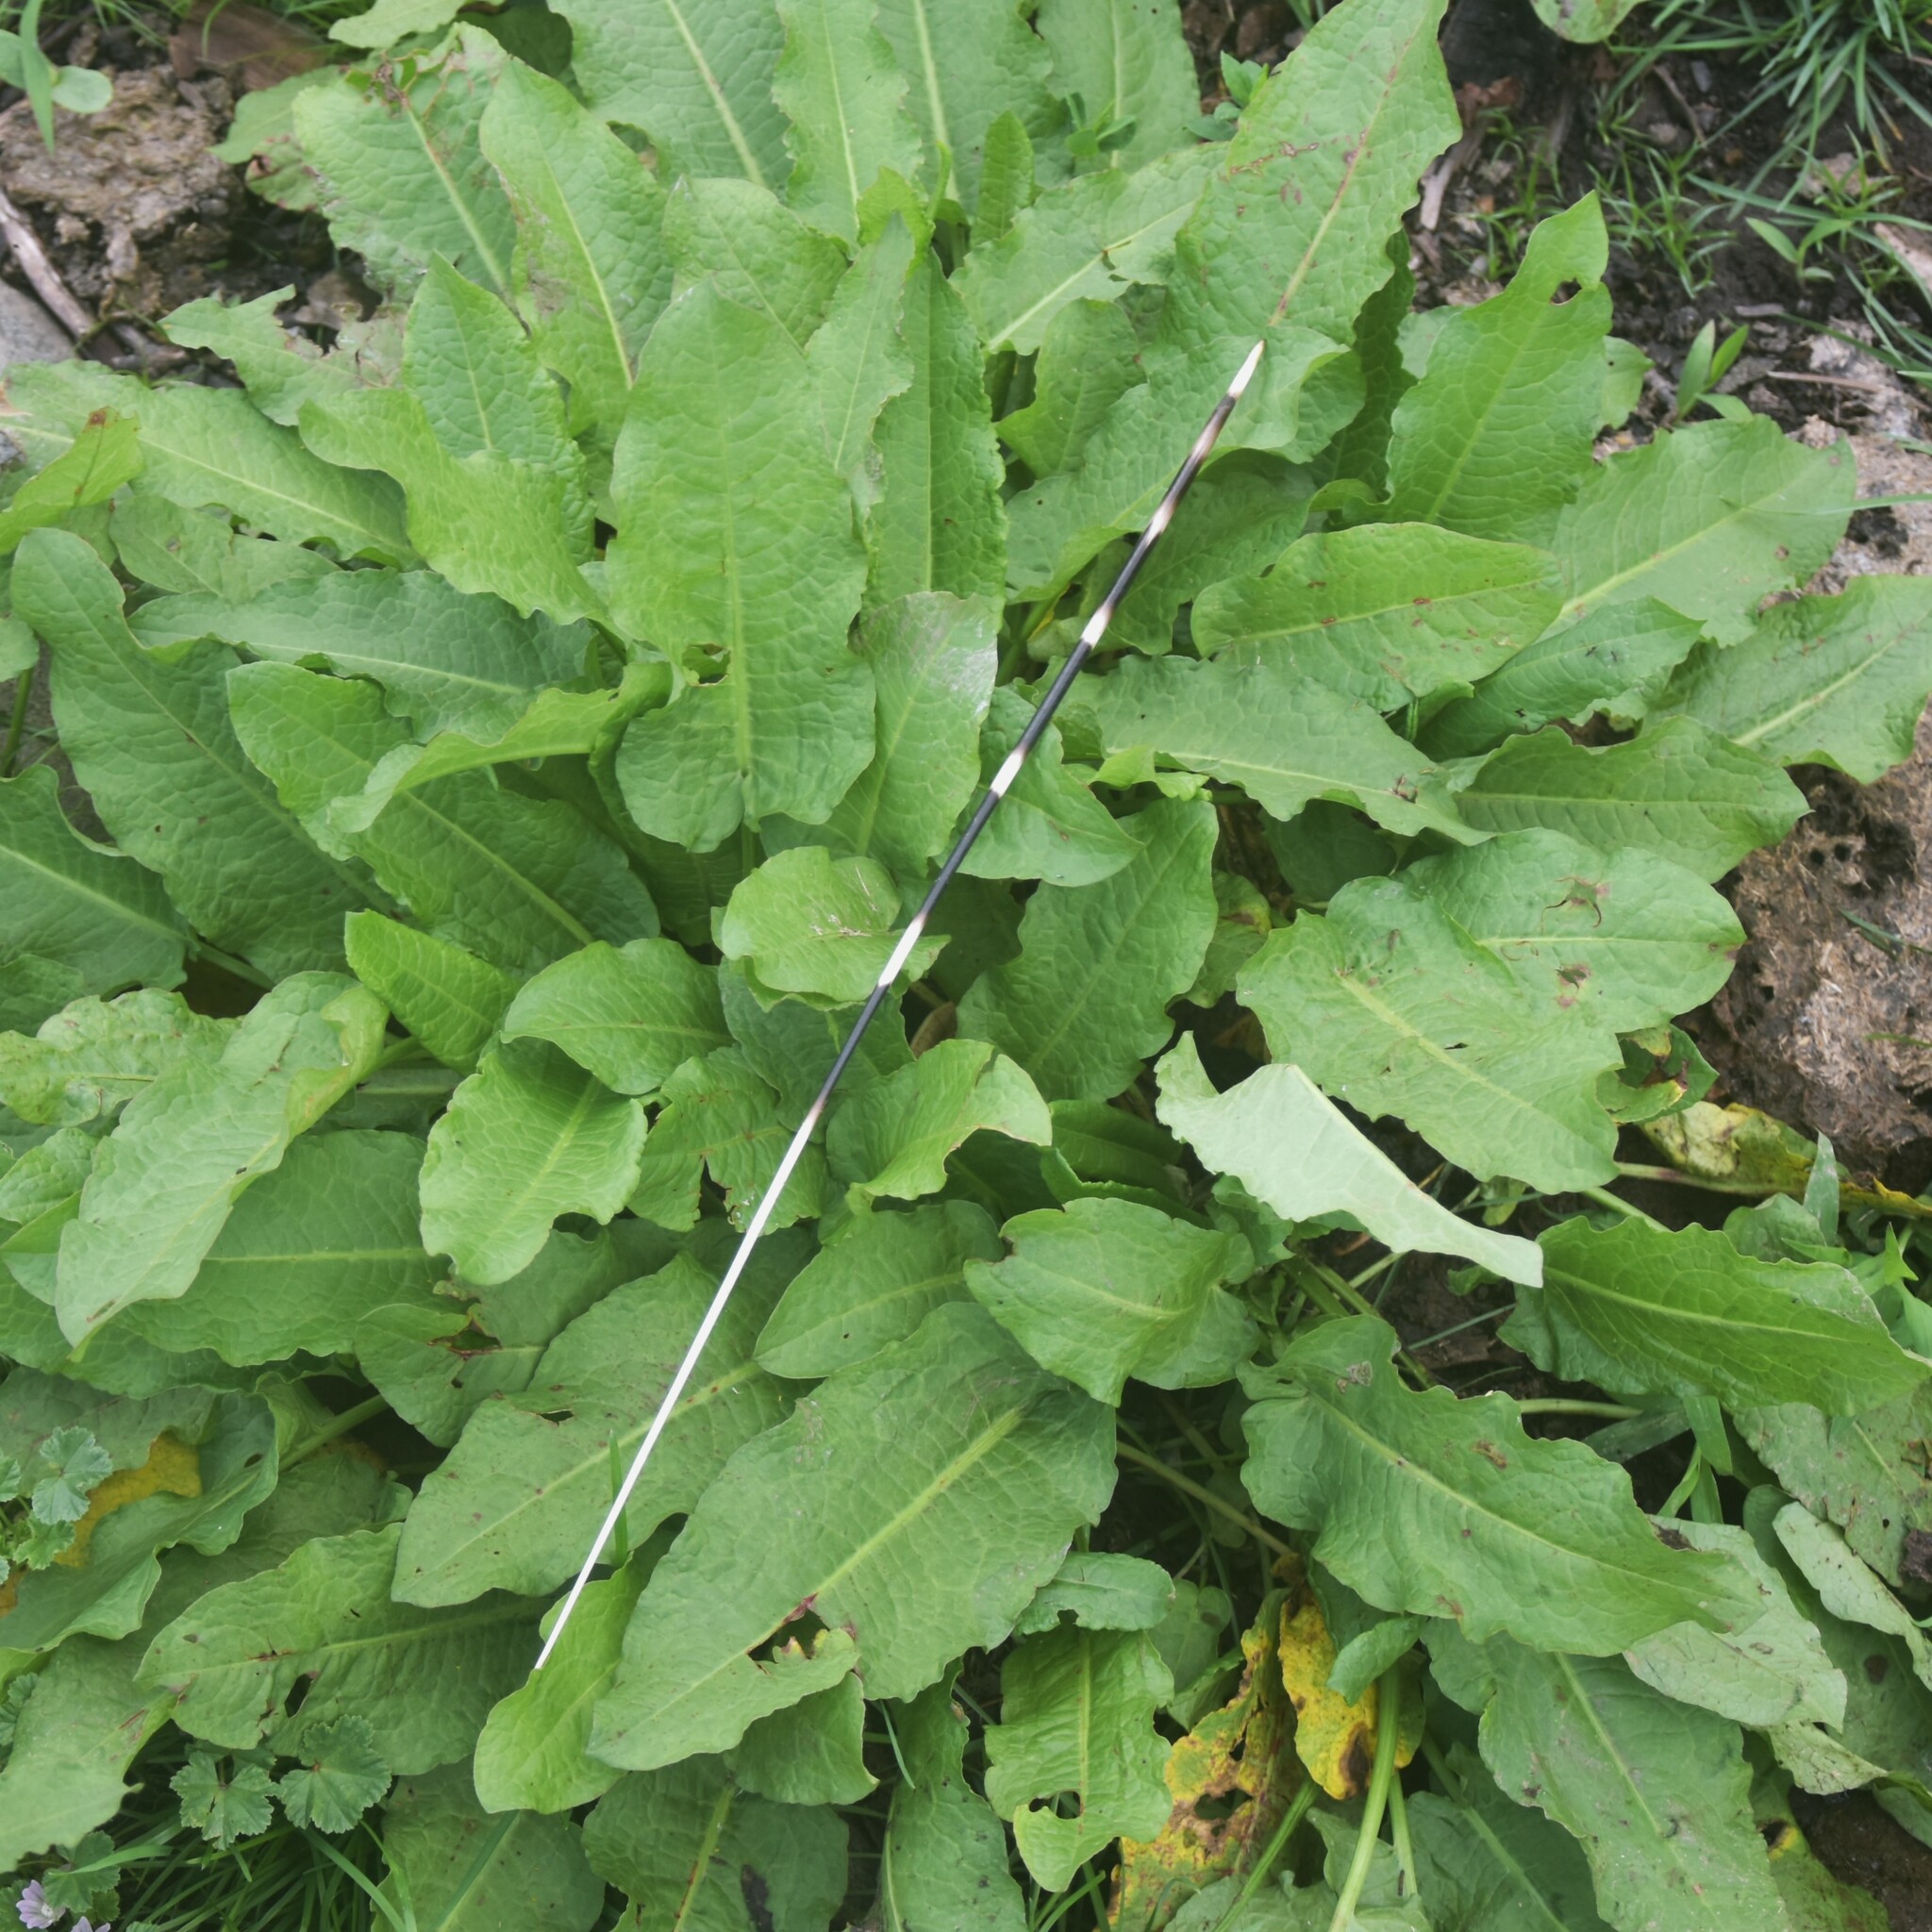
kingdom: Animalia
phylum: Chordata
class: Mammalia
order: Rodentia
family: Hystricidae
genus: Hystrix
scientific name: Hystrix indica
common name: Indian crested porcupine
